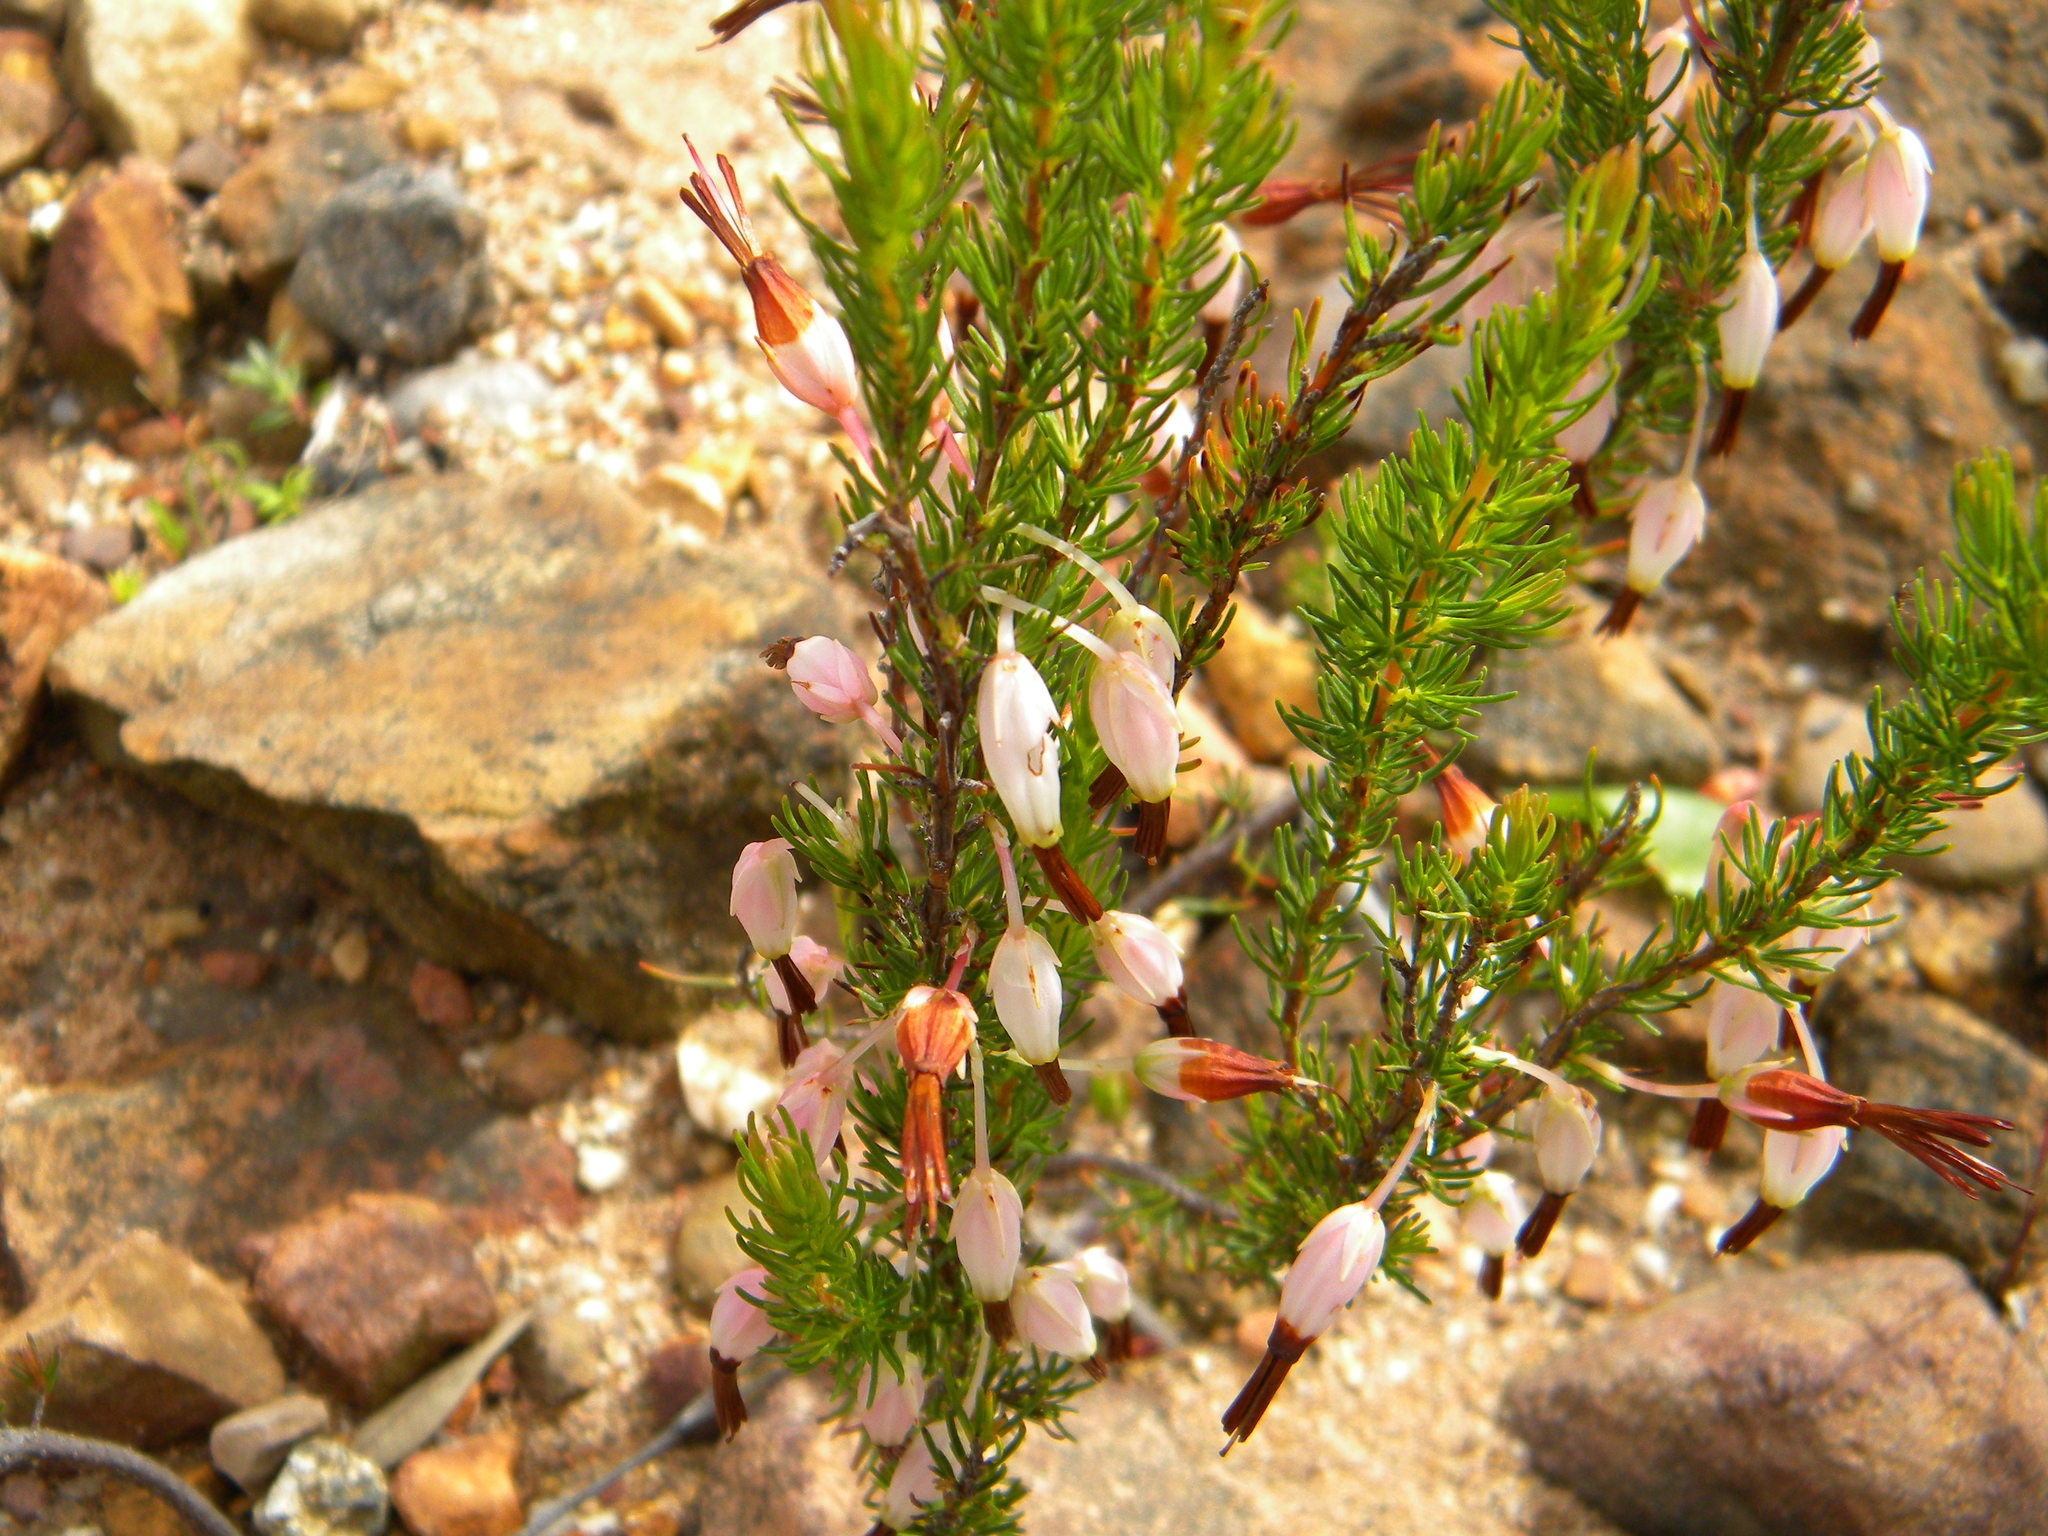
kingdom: Plantae
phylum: Tracheophyta
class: Magnoliopsida
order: Ericales
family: Ericaceae
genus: Erica
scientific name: Erica plukenetii
